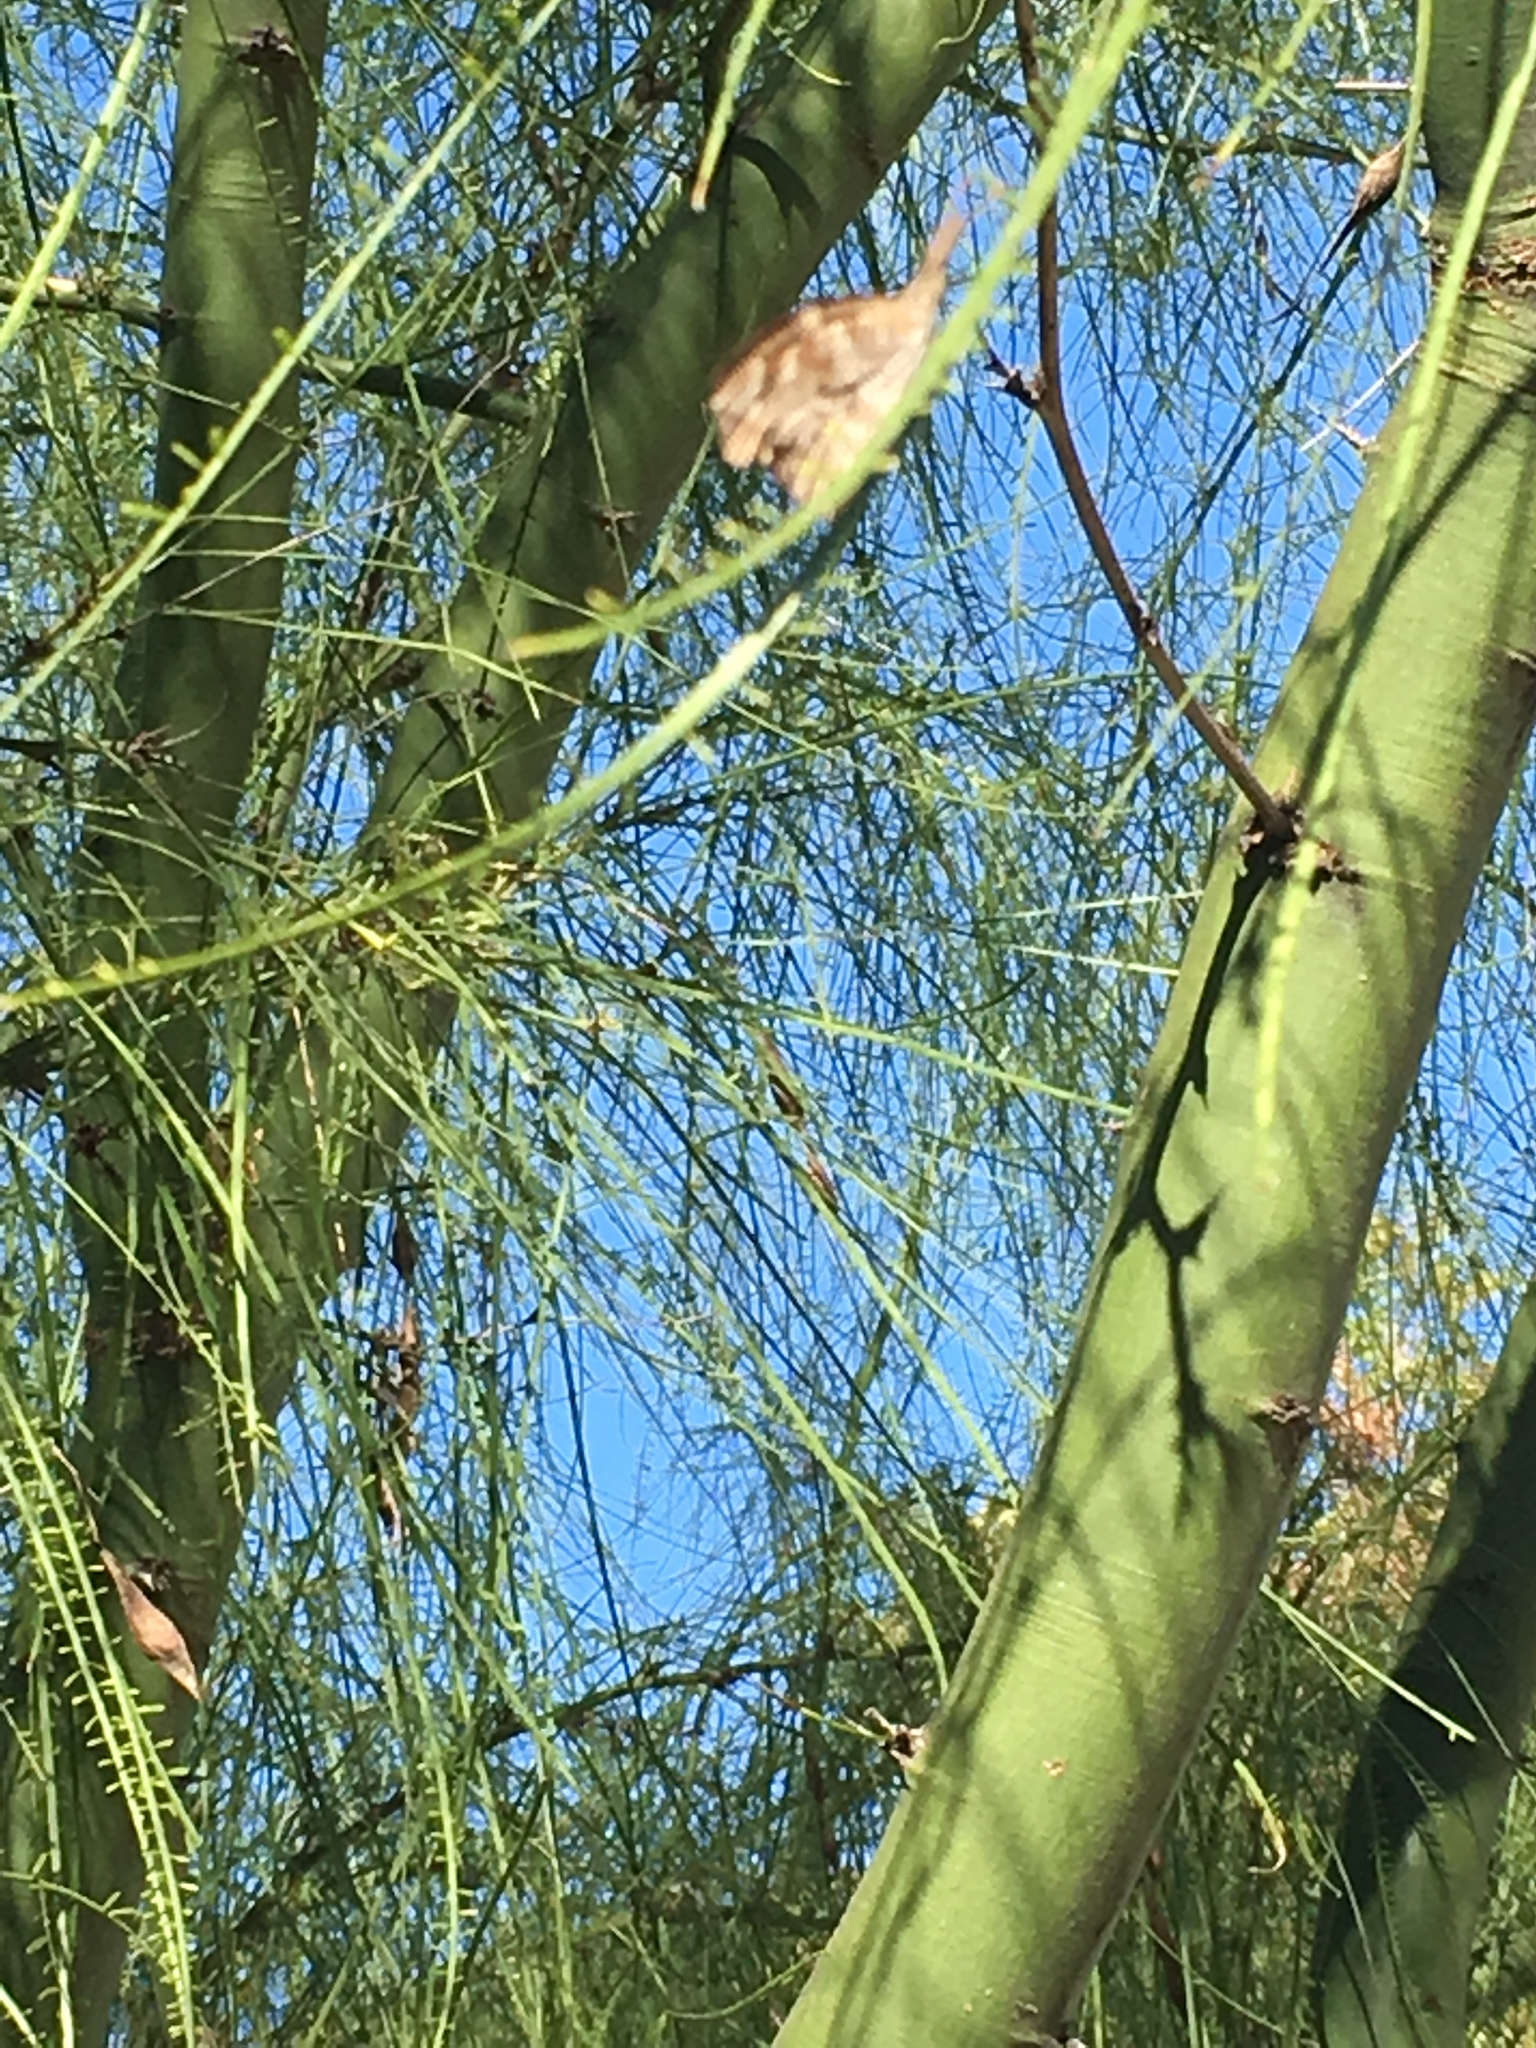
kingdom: Animalia
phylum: Arthropoda
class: Insecta
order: Lepidoptera
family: Nymphalidae
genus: Libytheana
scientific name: Libytheana carinenta
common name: American snout
